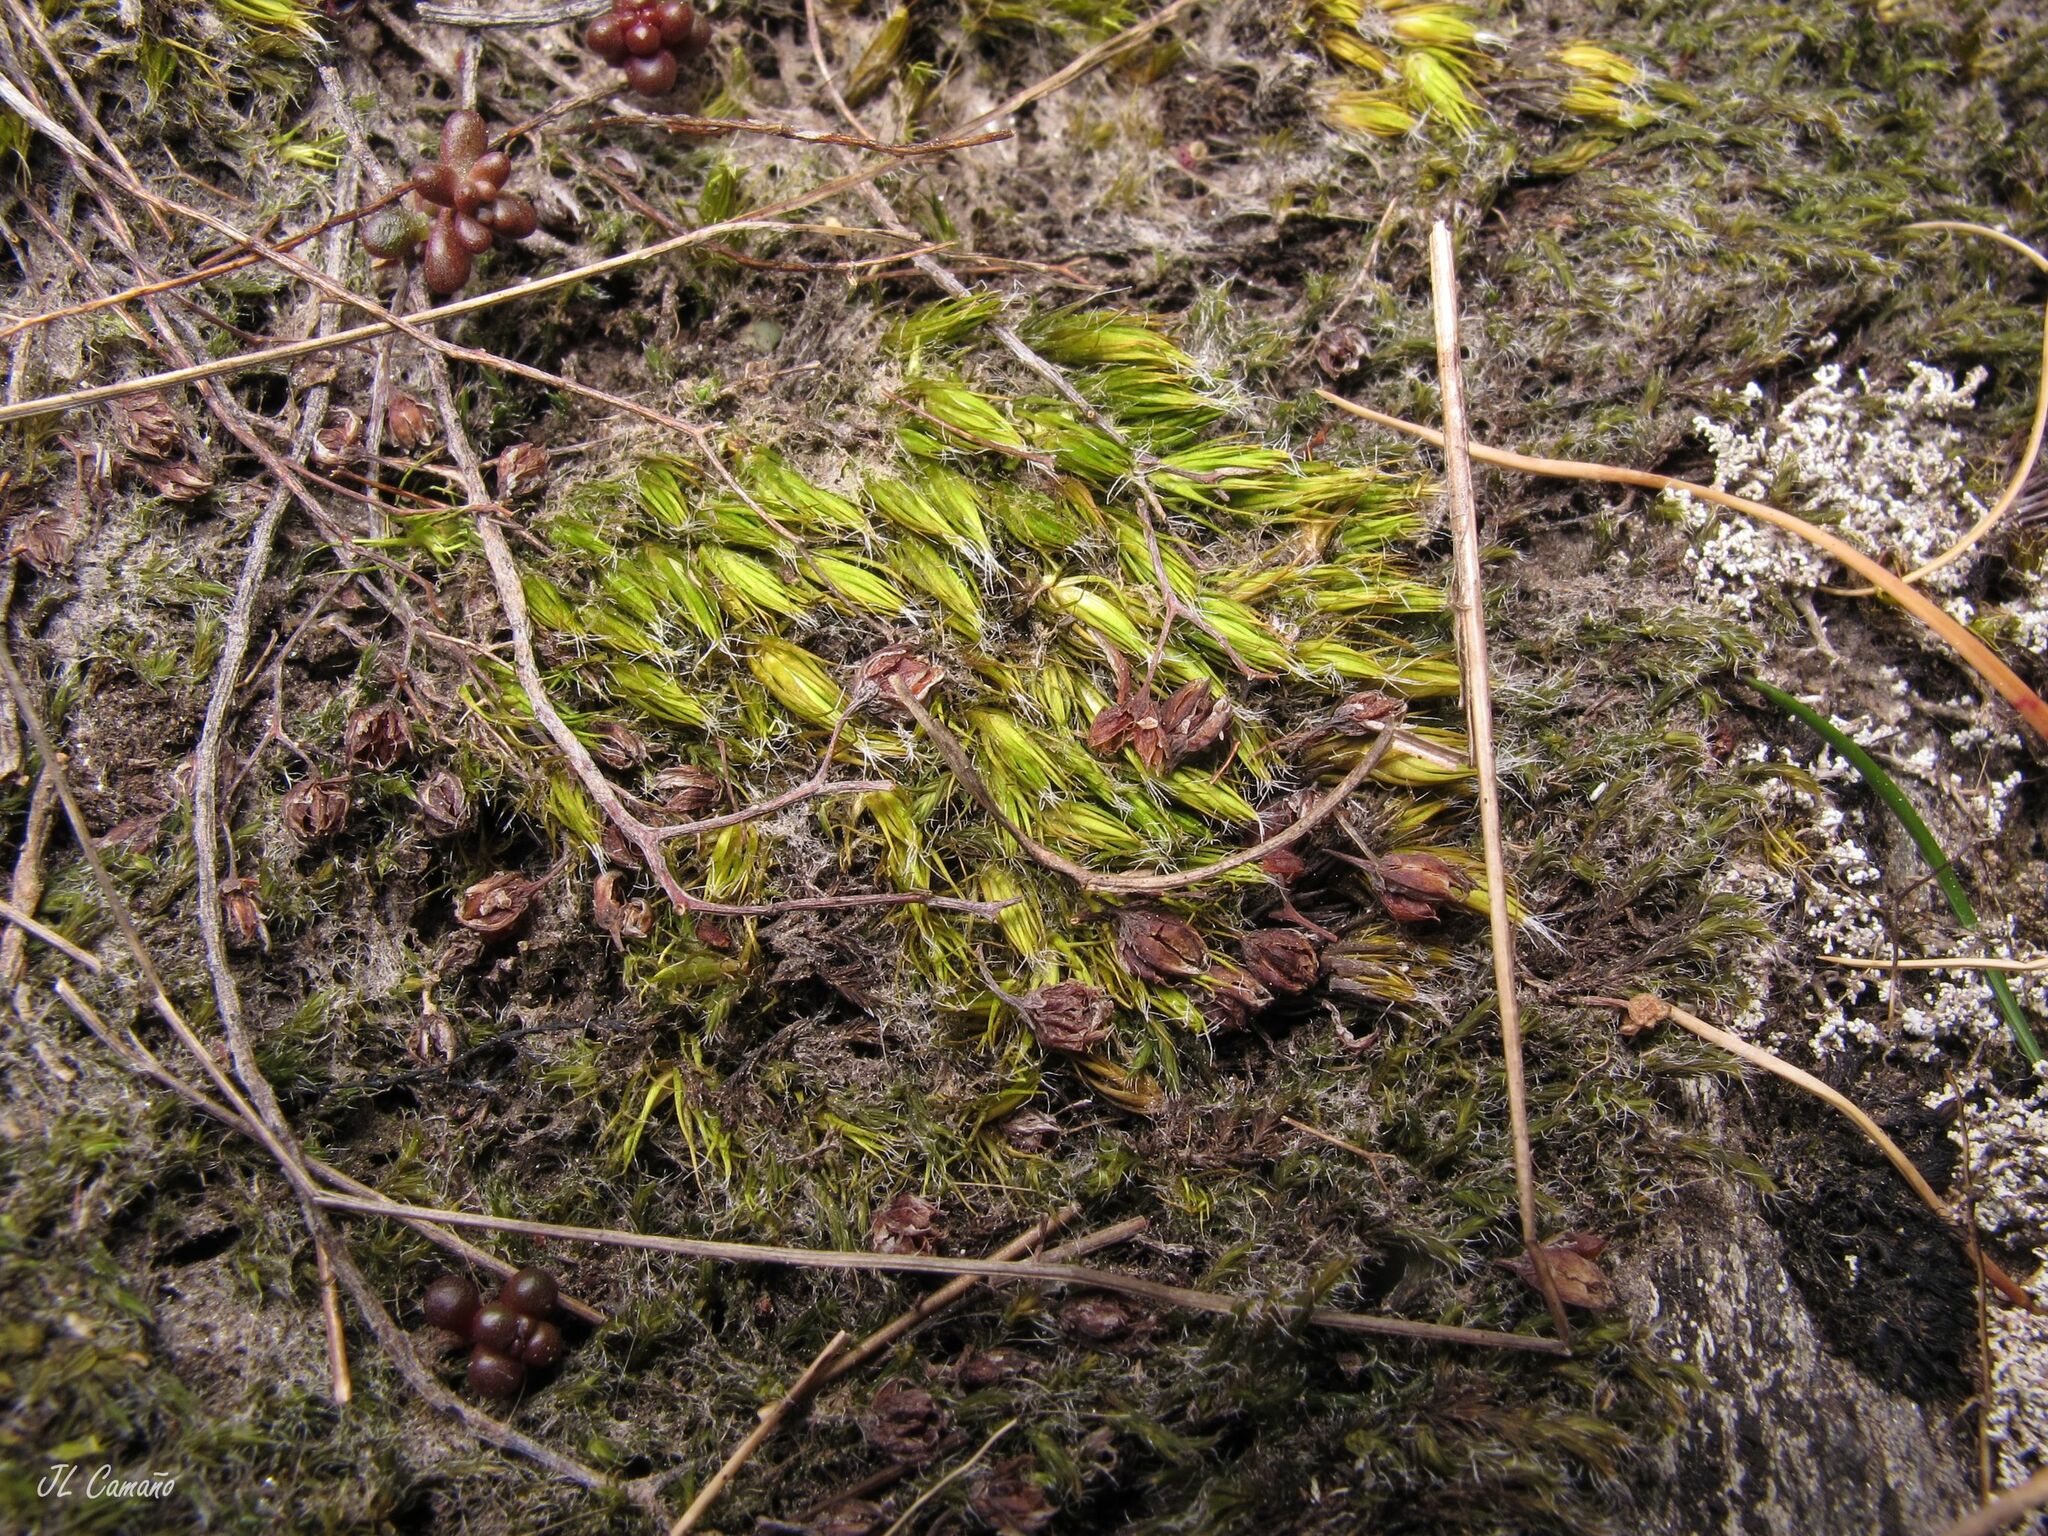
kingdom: Plantae
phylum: Bryophyta
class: Bryopsida
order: Dicranales
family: Leucobryaceae
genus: Campylopus
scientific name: Campylopus introflexus
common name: Heath star moss
